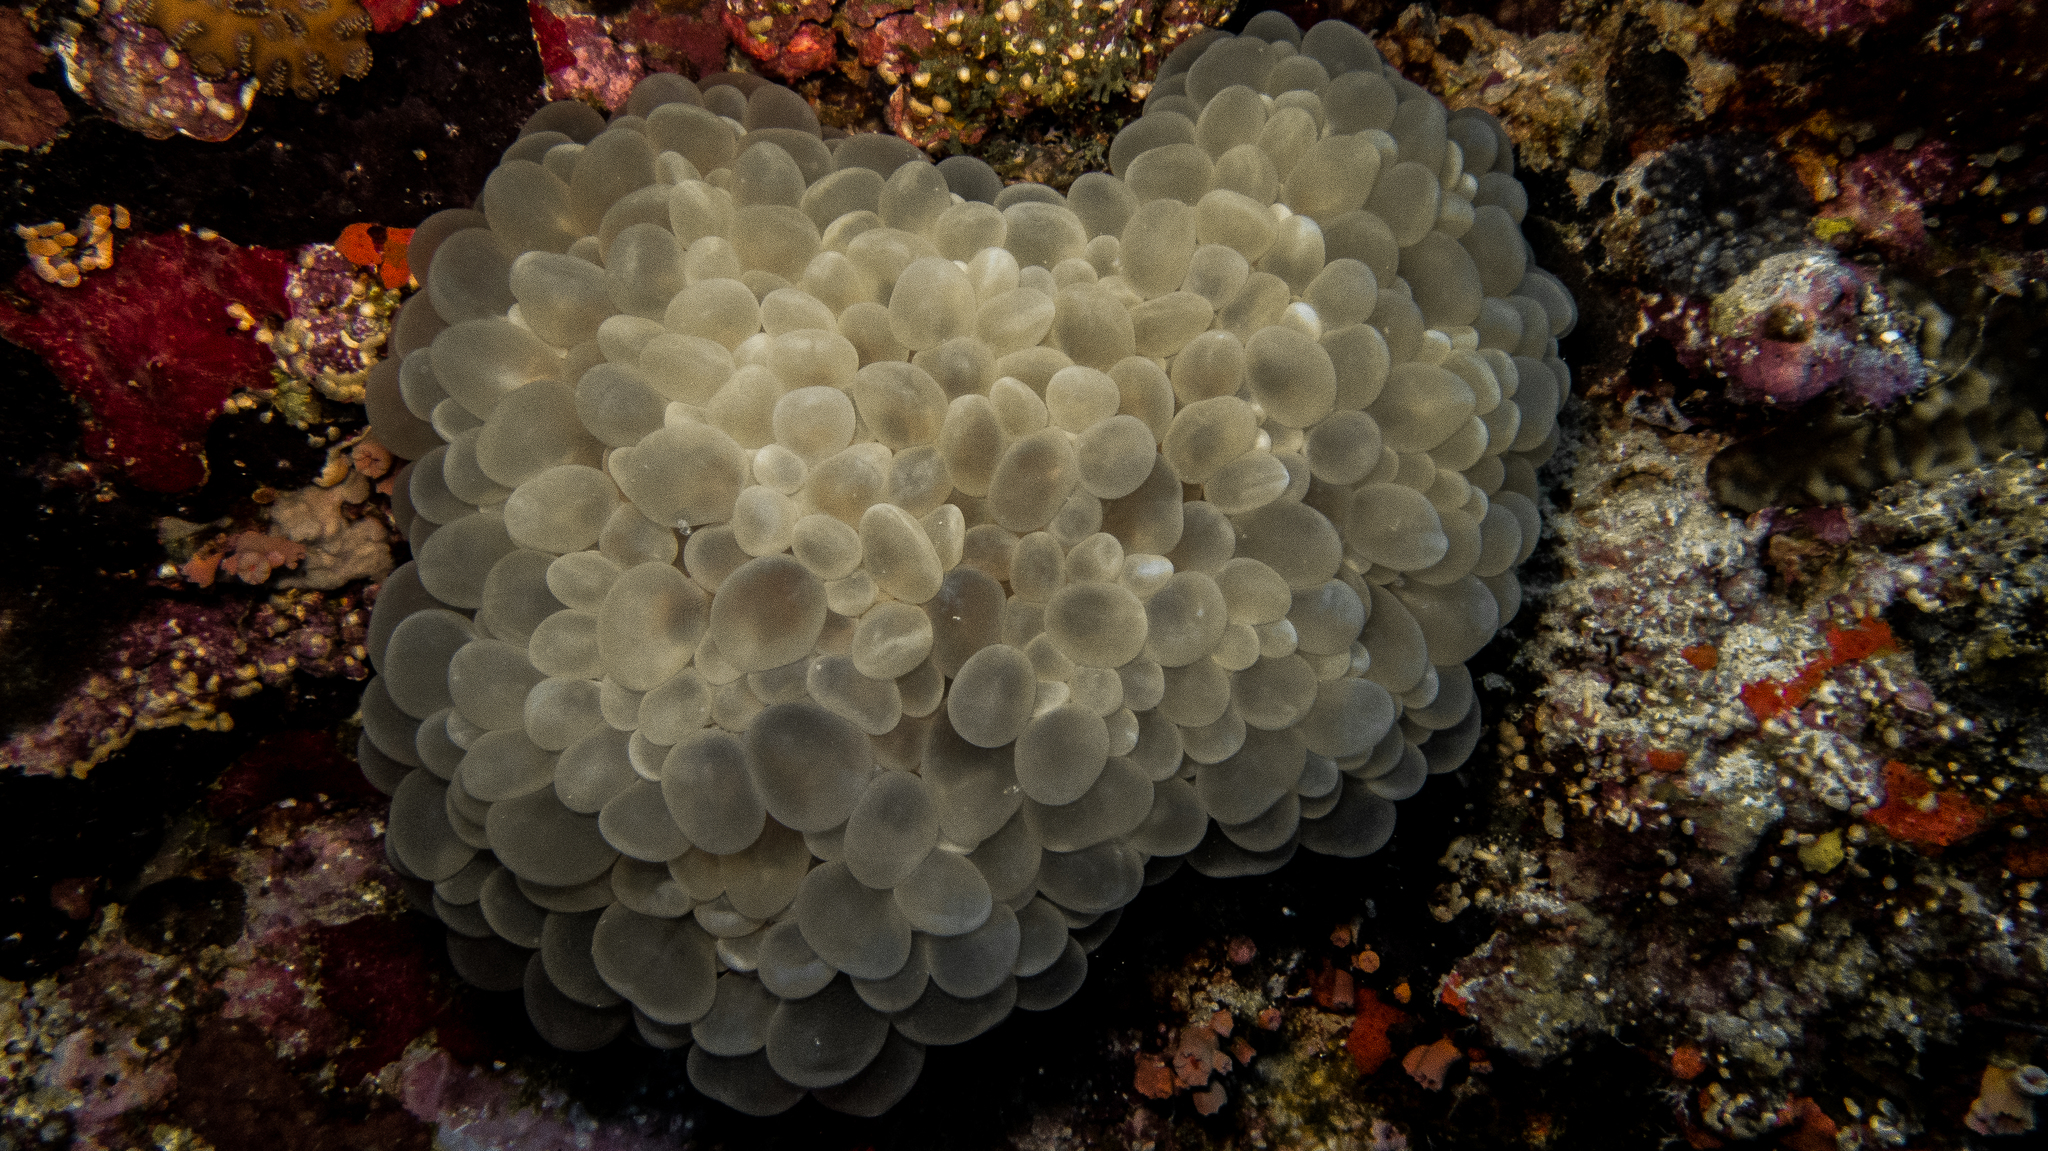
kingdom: Animalia
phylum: Cnidaria
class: Anthozoa
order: Scleractinia
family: Plerogyridae
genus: Plerogyra
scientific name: Plerogyra sinuosa
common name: Bubble coral
